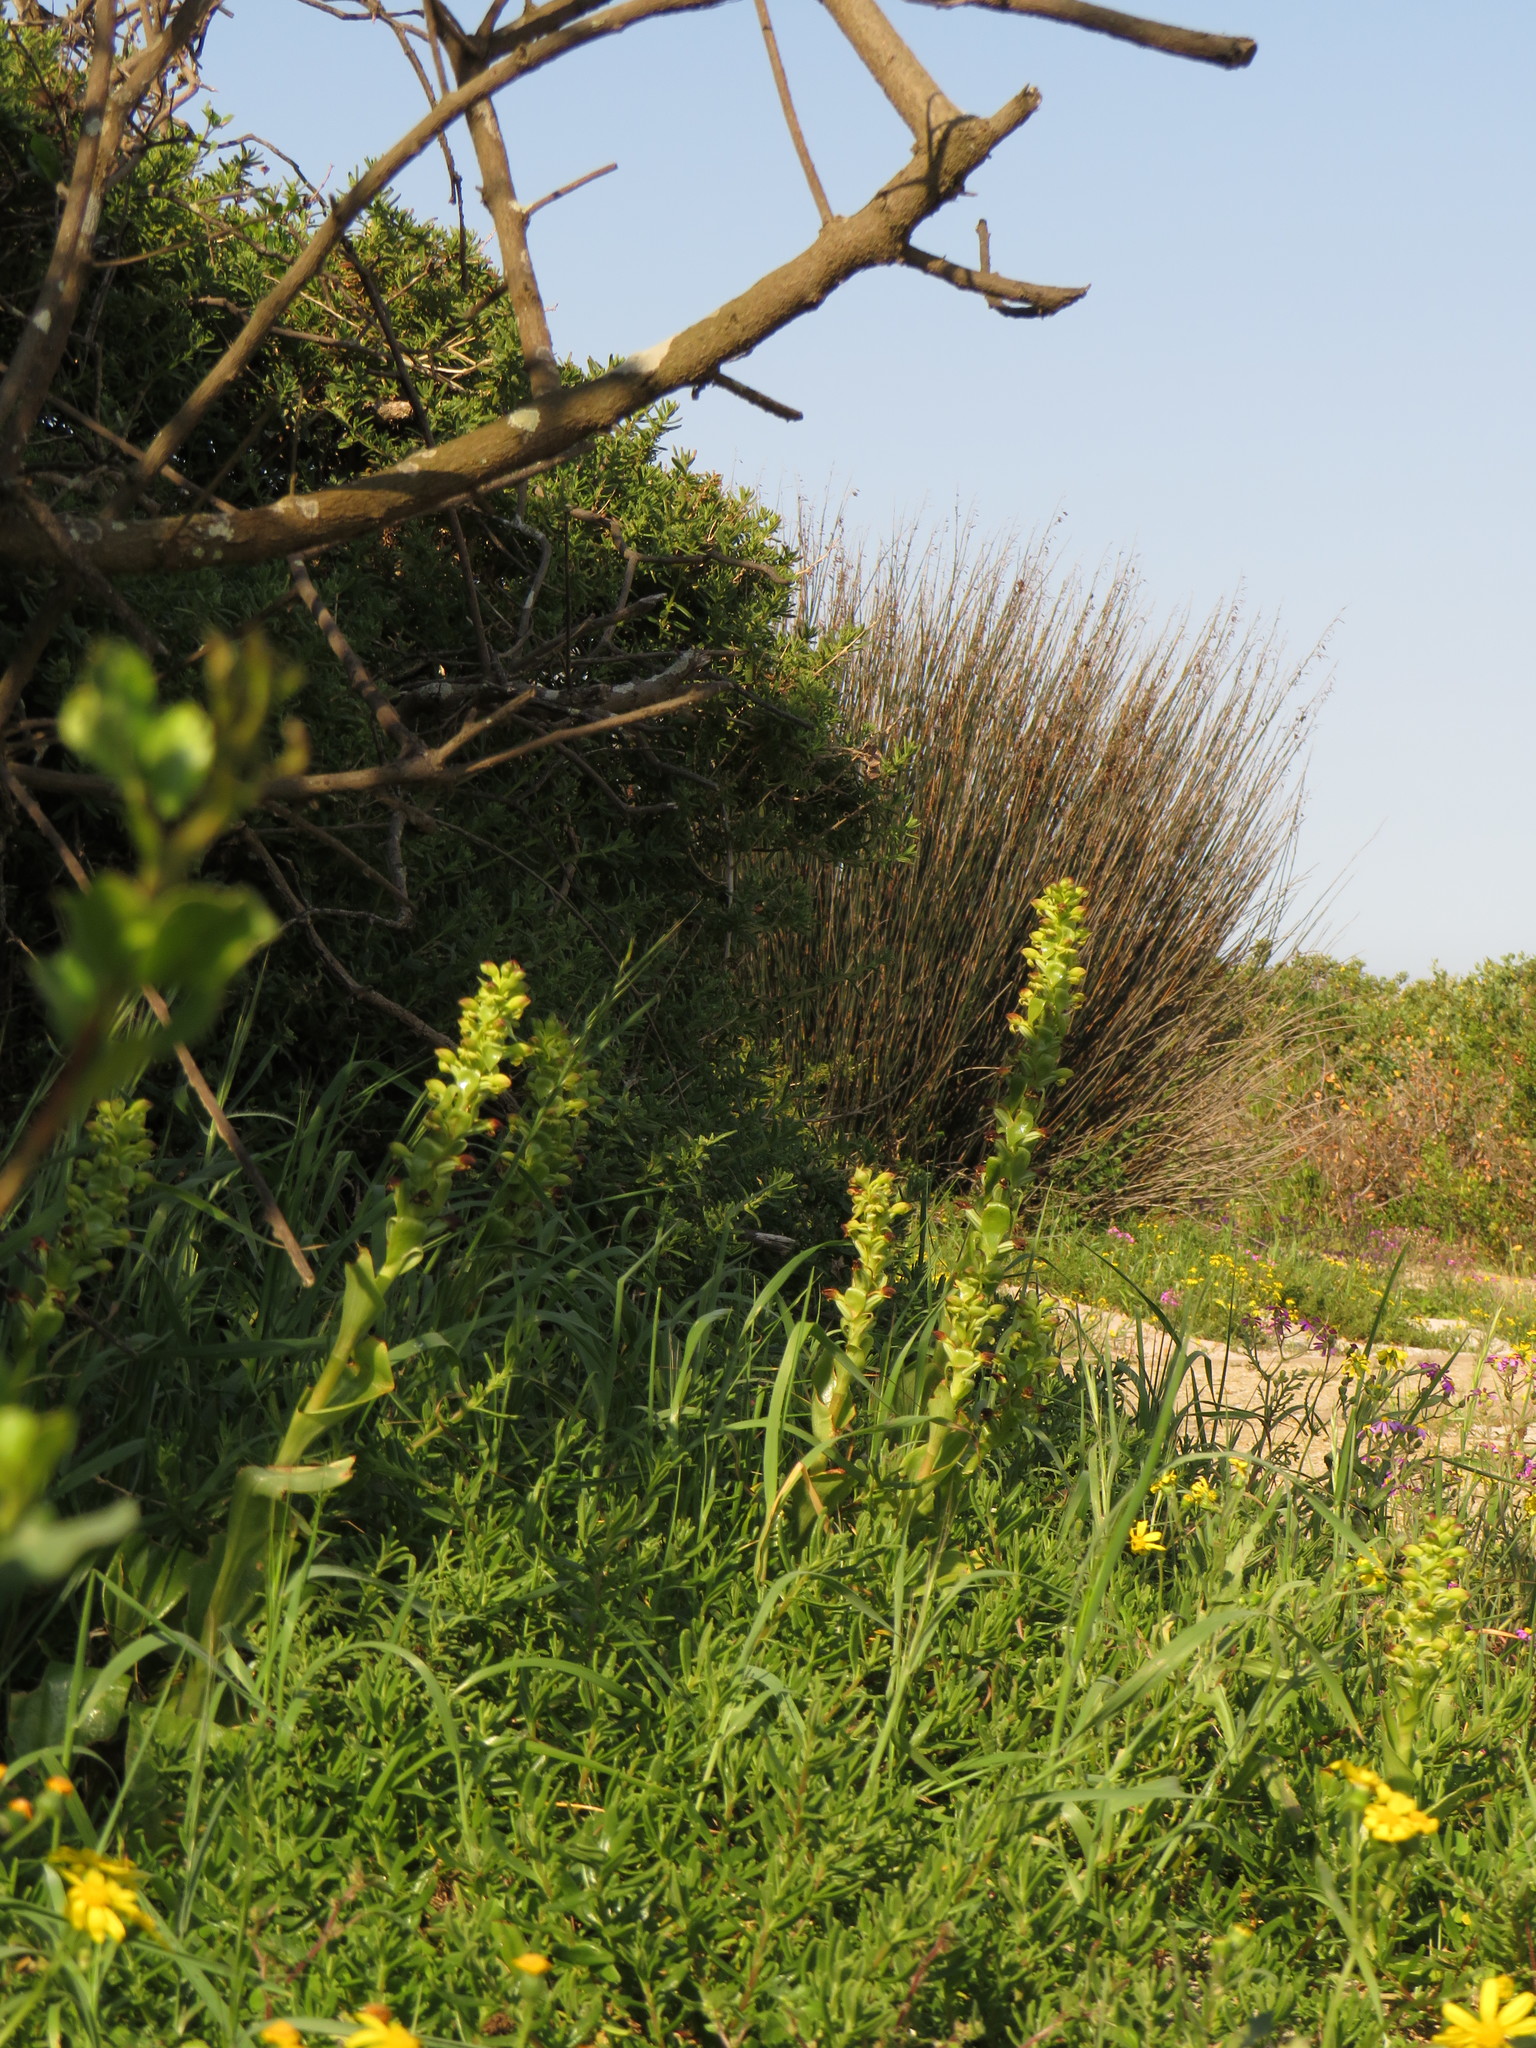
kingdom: Plantae
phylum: Tracheophyta
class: Liliopsida
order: Asparagales
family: Orchidaceae
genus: Satyrium
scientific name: Satyrium odorum
